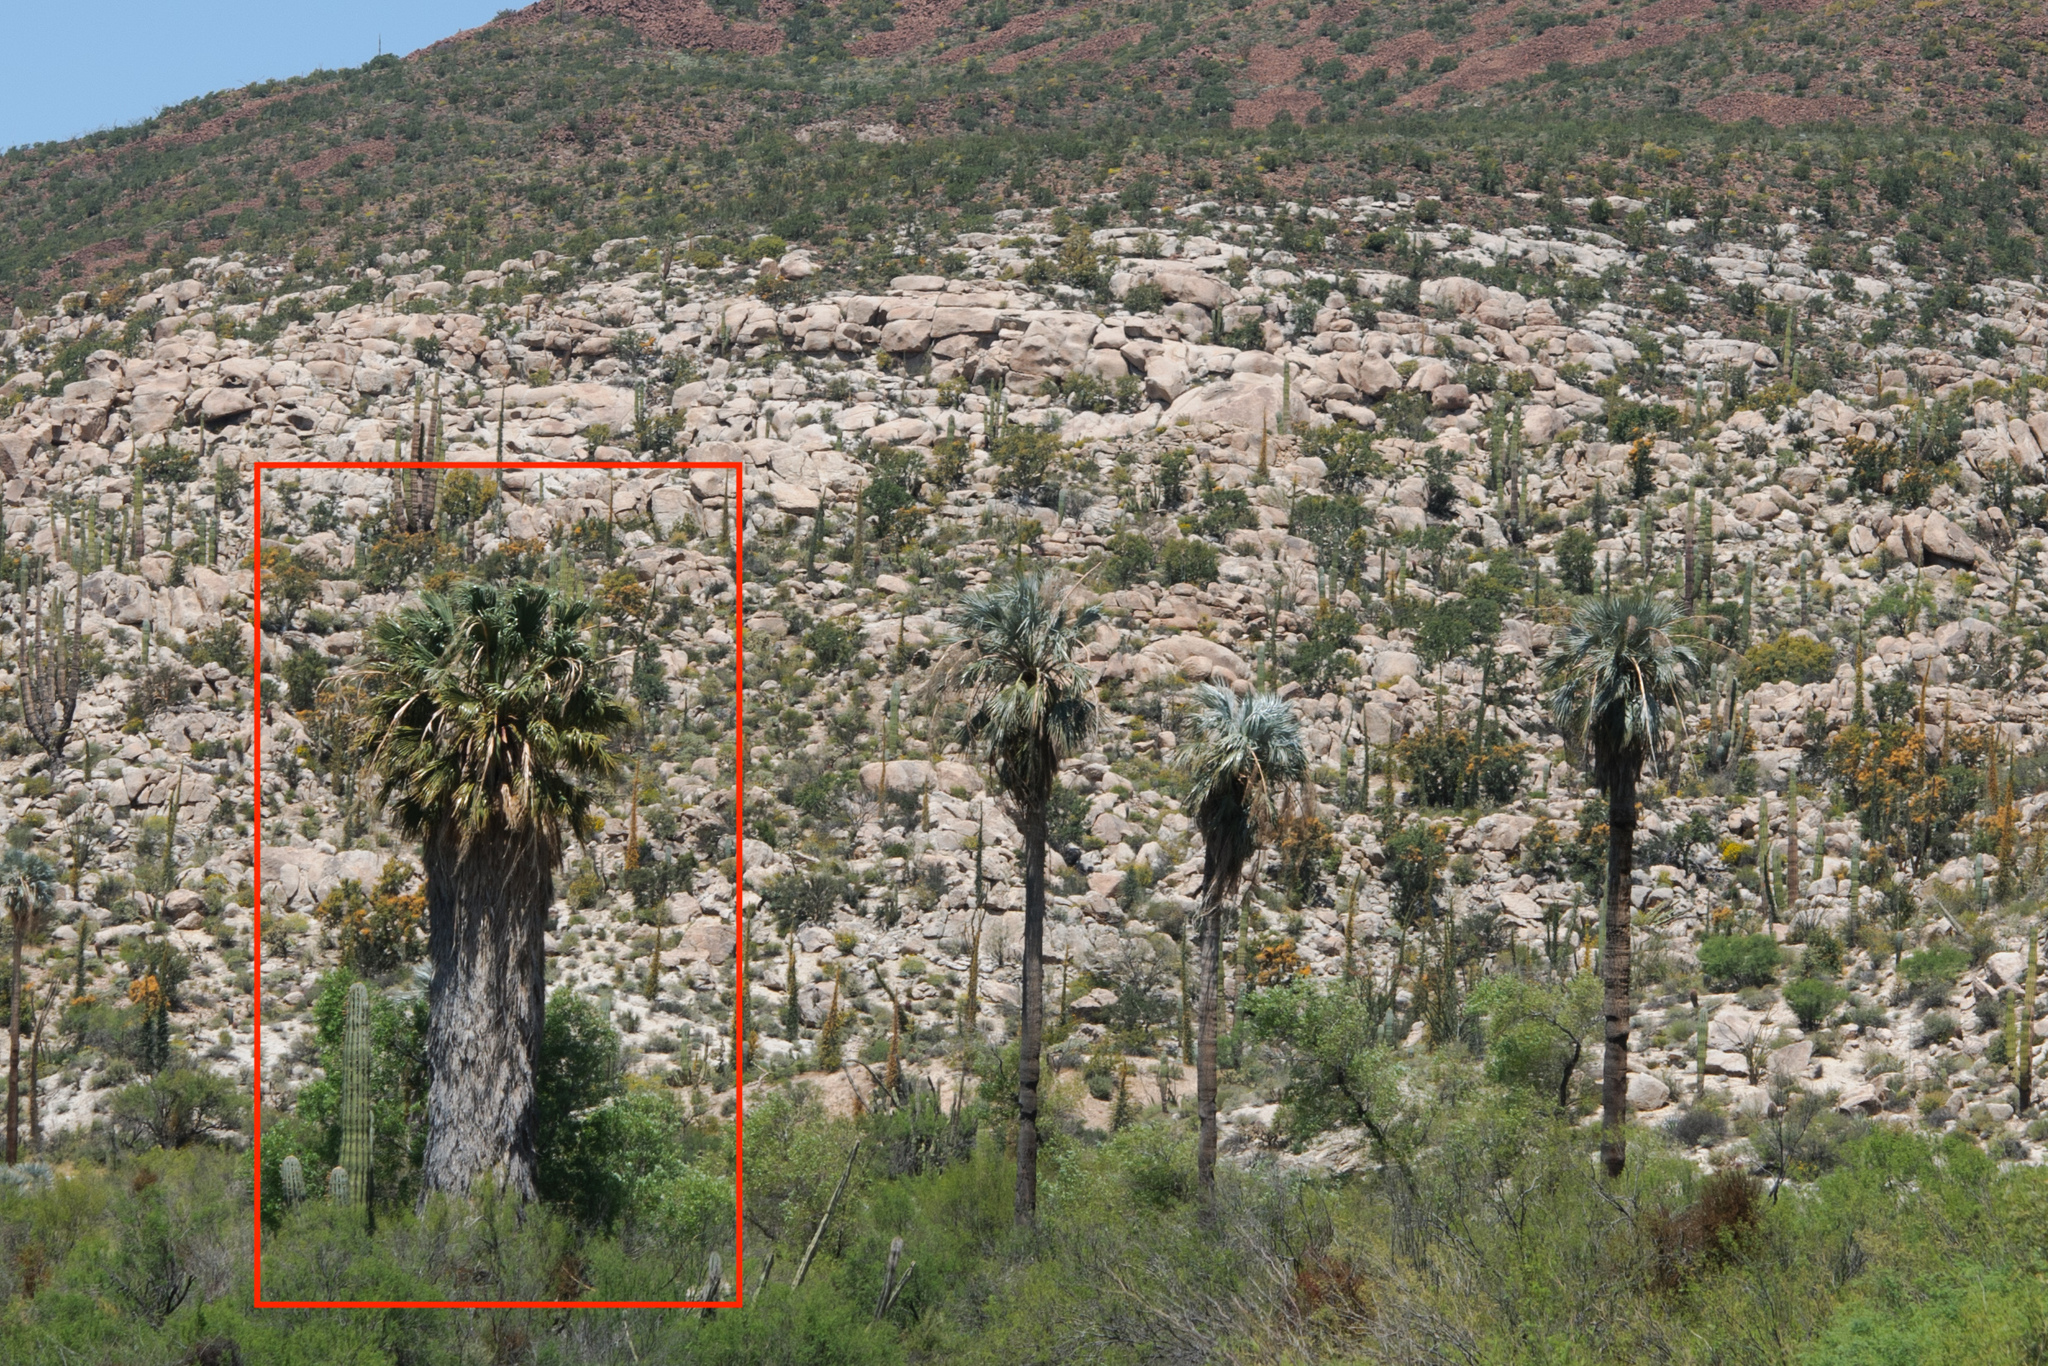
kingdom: Plantae
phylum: Tracheophyta
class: Liliopsida
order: Arecales
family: Arecaceae
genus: Washingtonia
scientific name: Washingtonia filifera
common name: California fan palm
